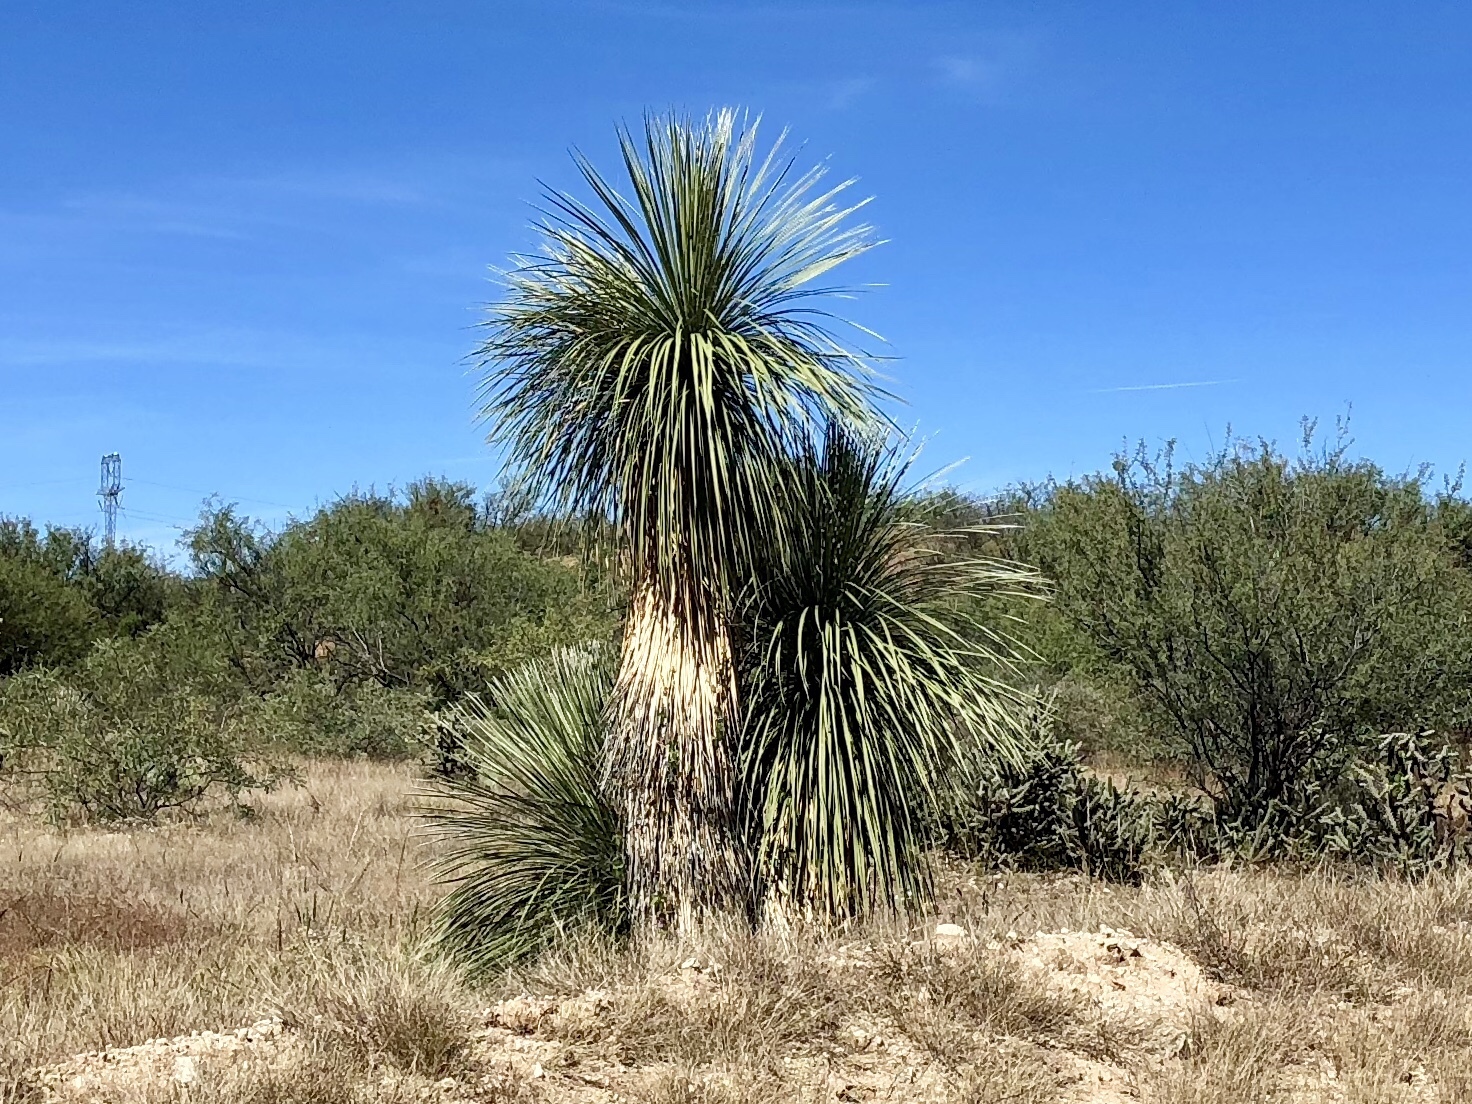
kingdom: Plantae
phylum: Tracheophyta
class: Liliopsida
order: Asparagales
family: Asparagaceae
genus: Yucca
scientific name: Yucca elata
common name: Palmella
